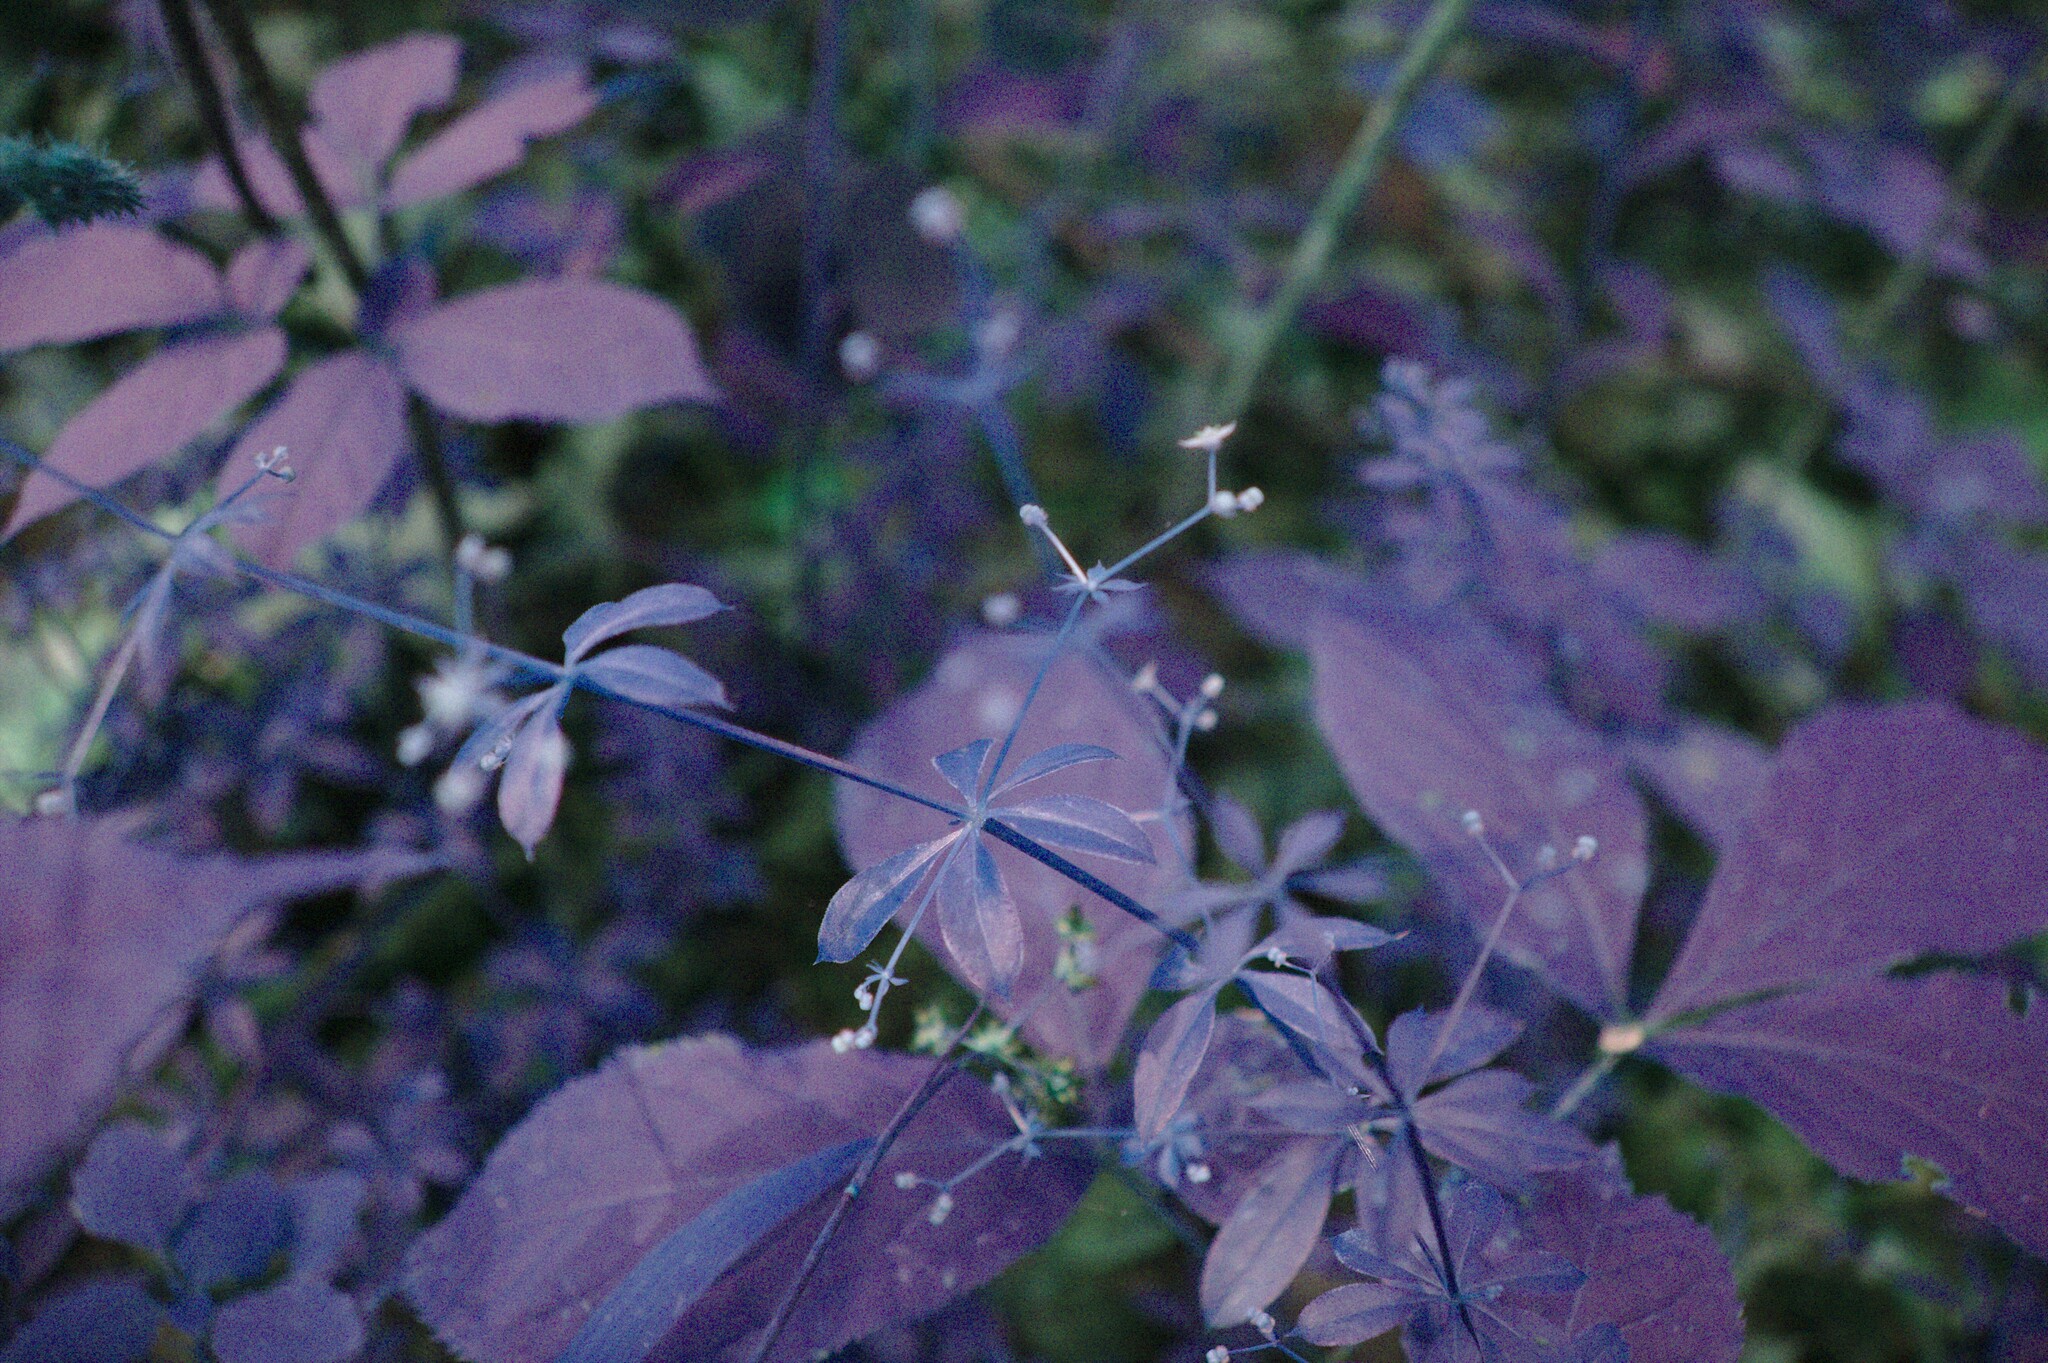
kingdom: Plantae
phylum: Tracheophyta
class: Magnoliopsida
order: Gentianales
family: Rubiaceae
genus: Galium
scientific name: Galium triflorum
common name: Fragrant bedstraw
